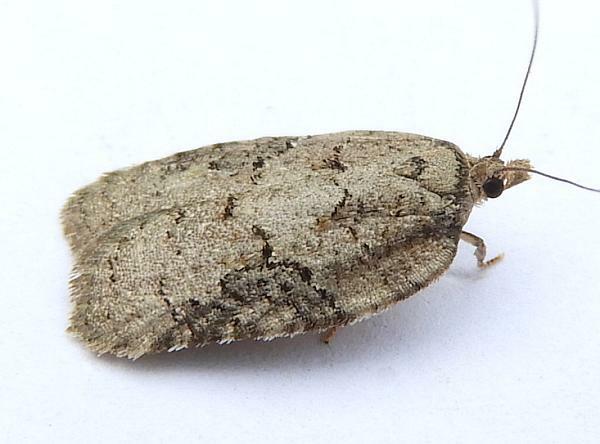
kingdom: Animalia
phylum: Arthropoda
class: Insecta
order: Lepidoptera
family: Tortricidae
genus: Acleris
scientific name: Acleris chalybeana
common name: Lesser maple leafroller
